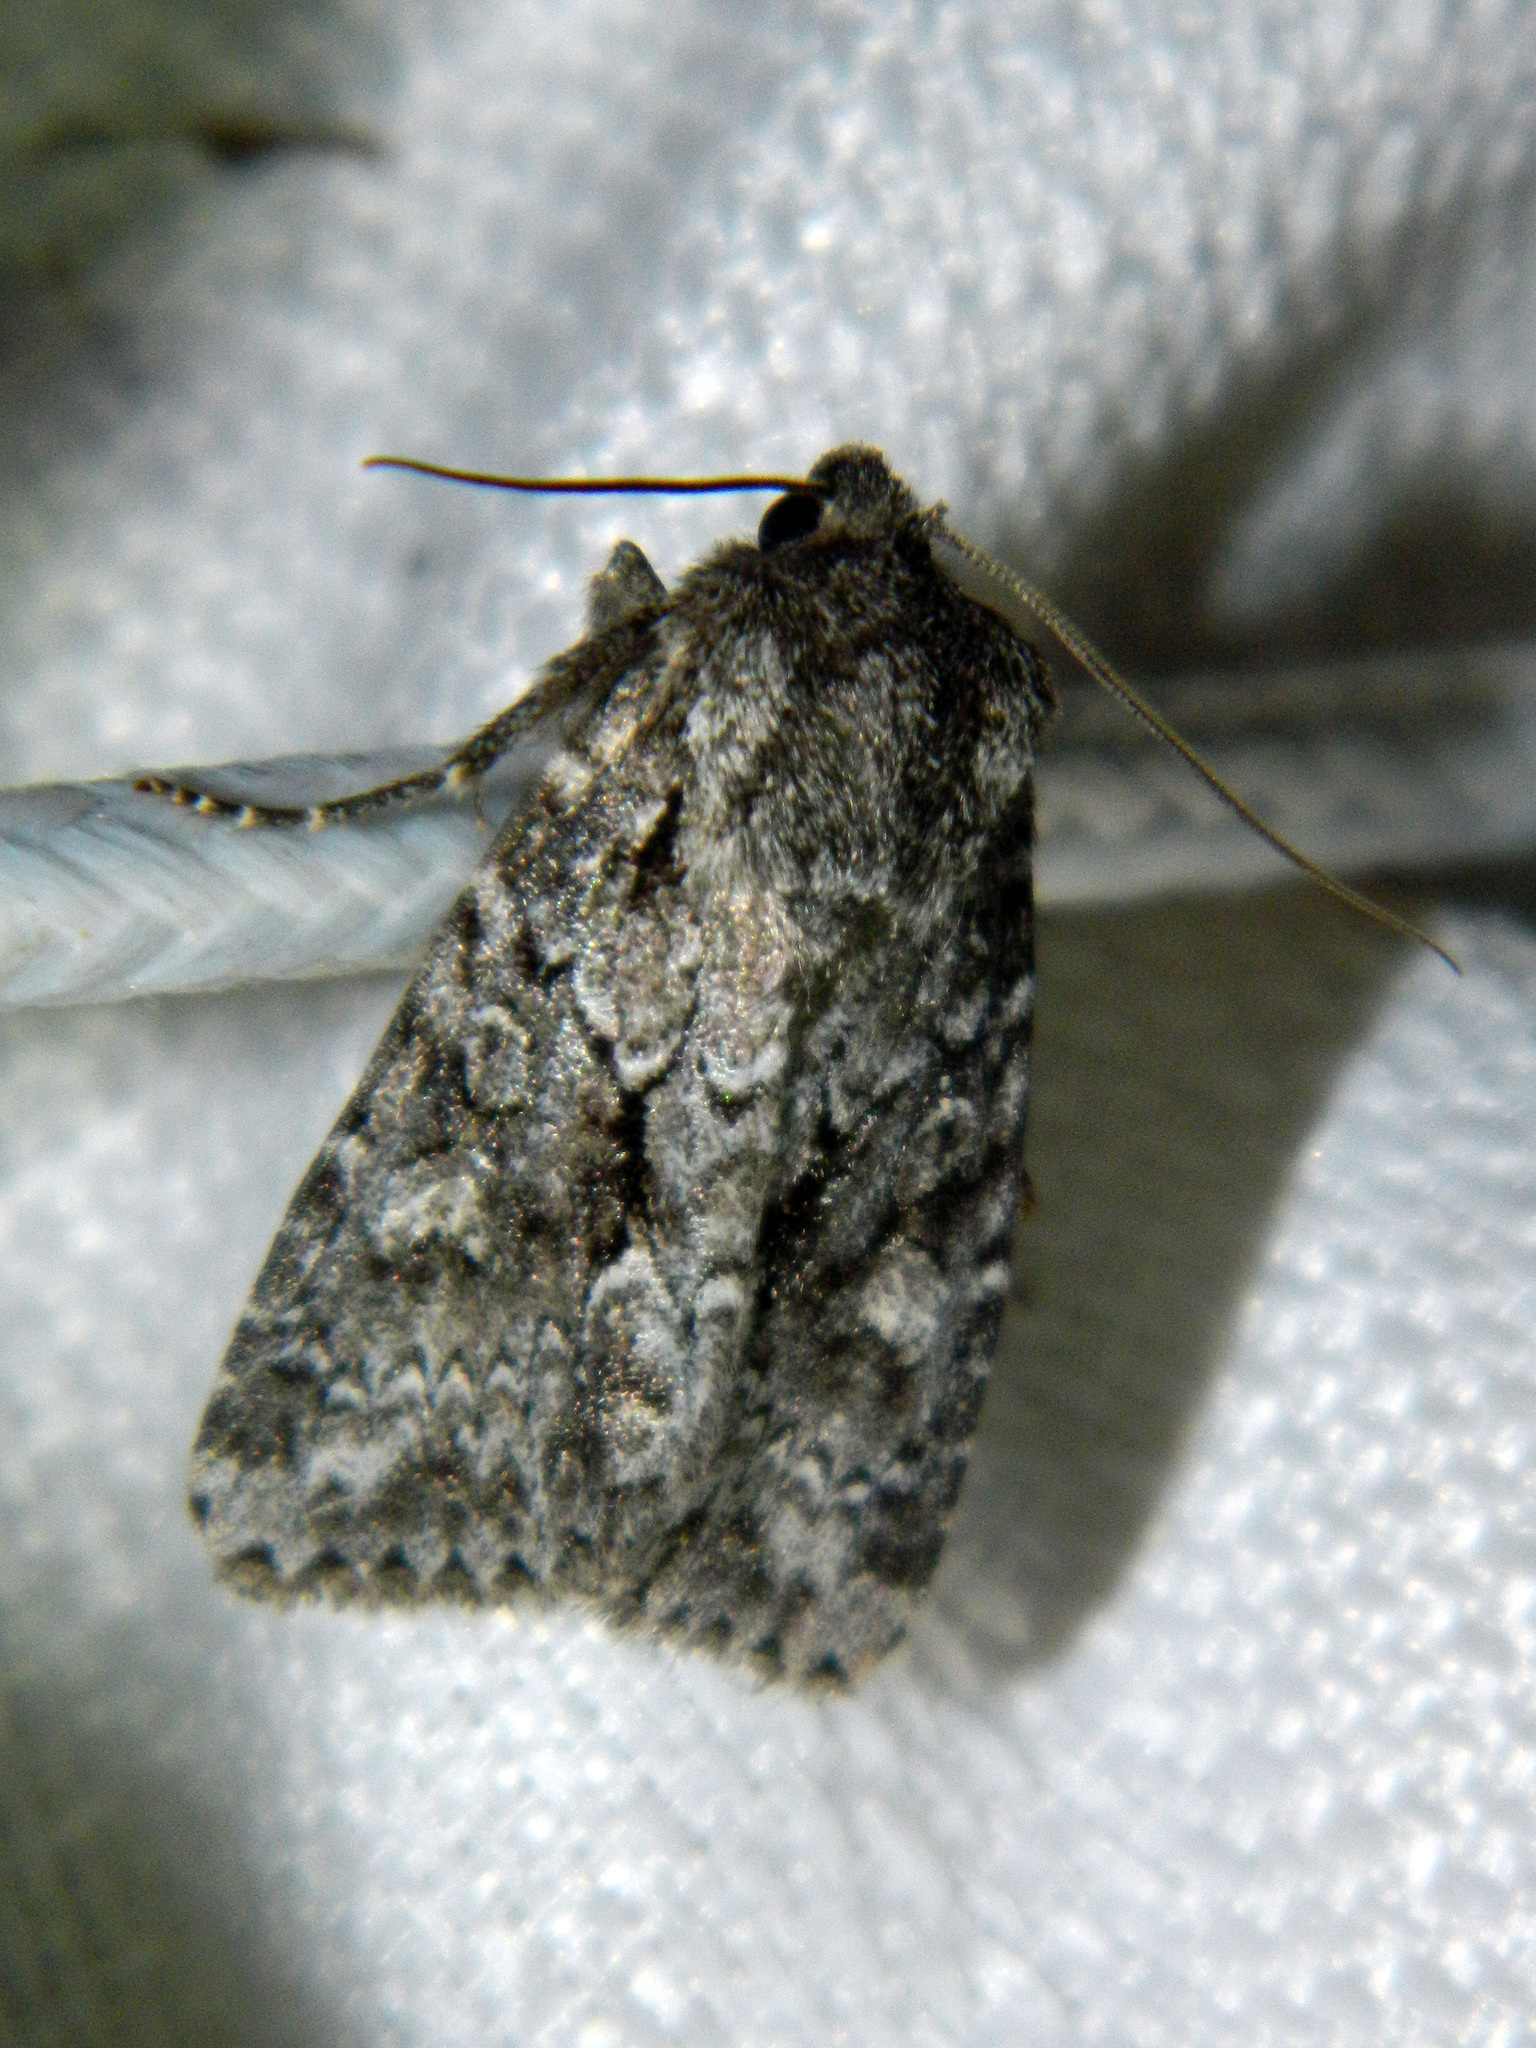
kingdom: Animalia
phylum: Arthropoda
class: Insecta
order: Lepidoptera
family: Noctuidae
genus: Sutyna
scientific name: Sutyna privata
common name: Private sallow
